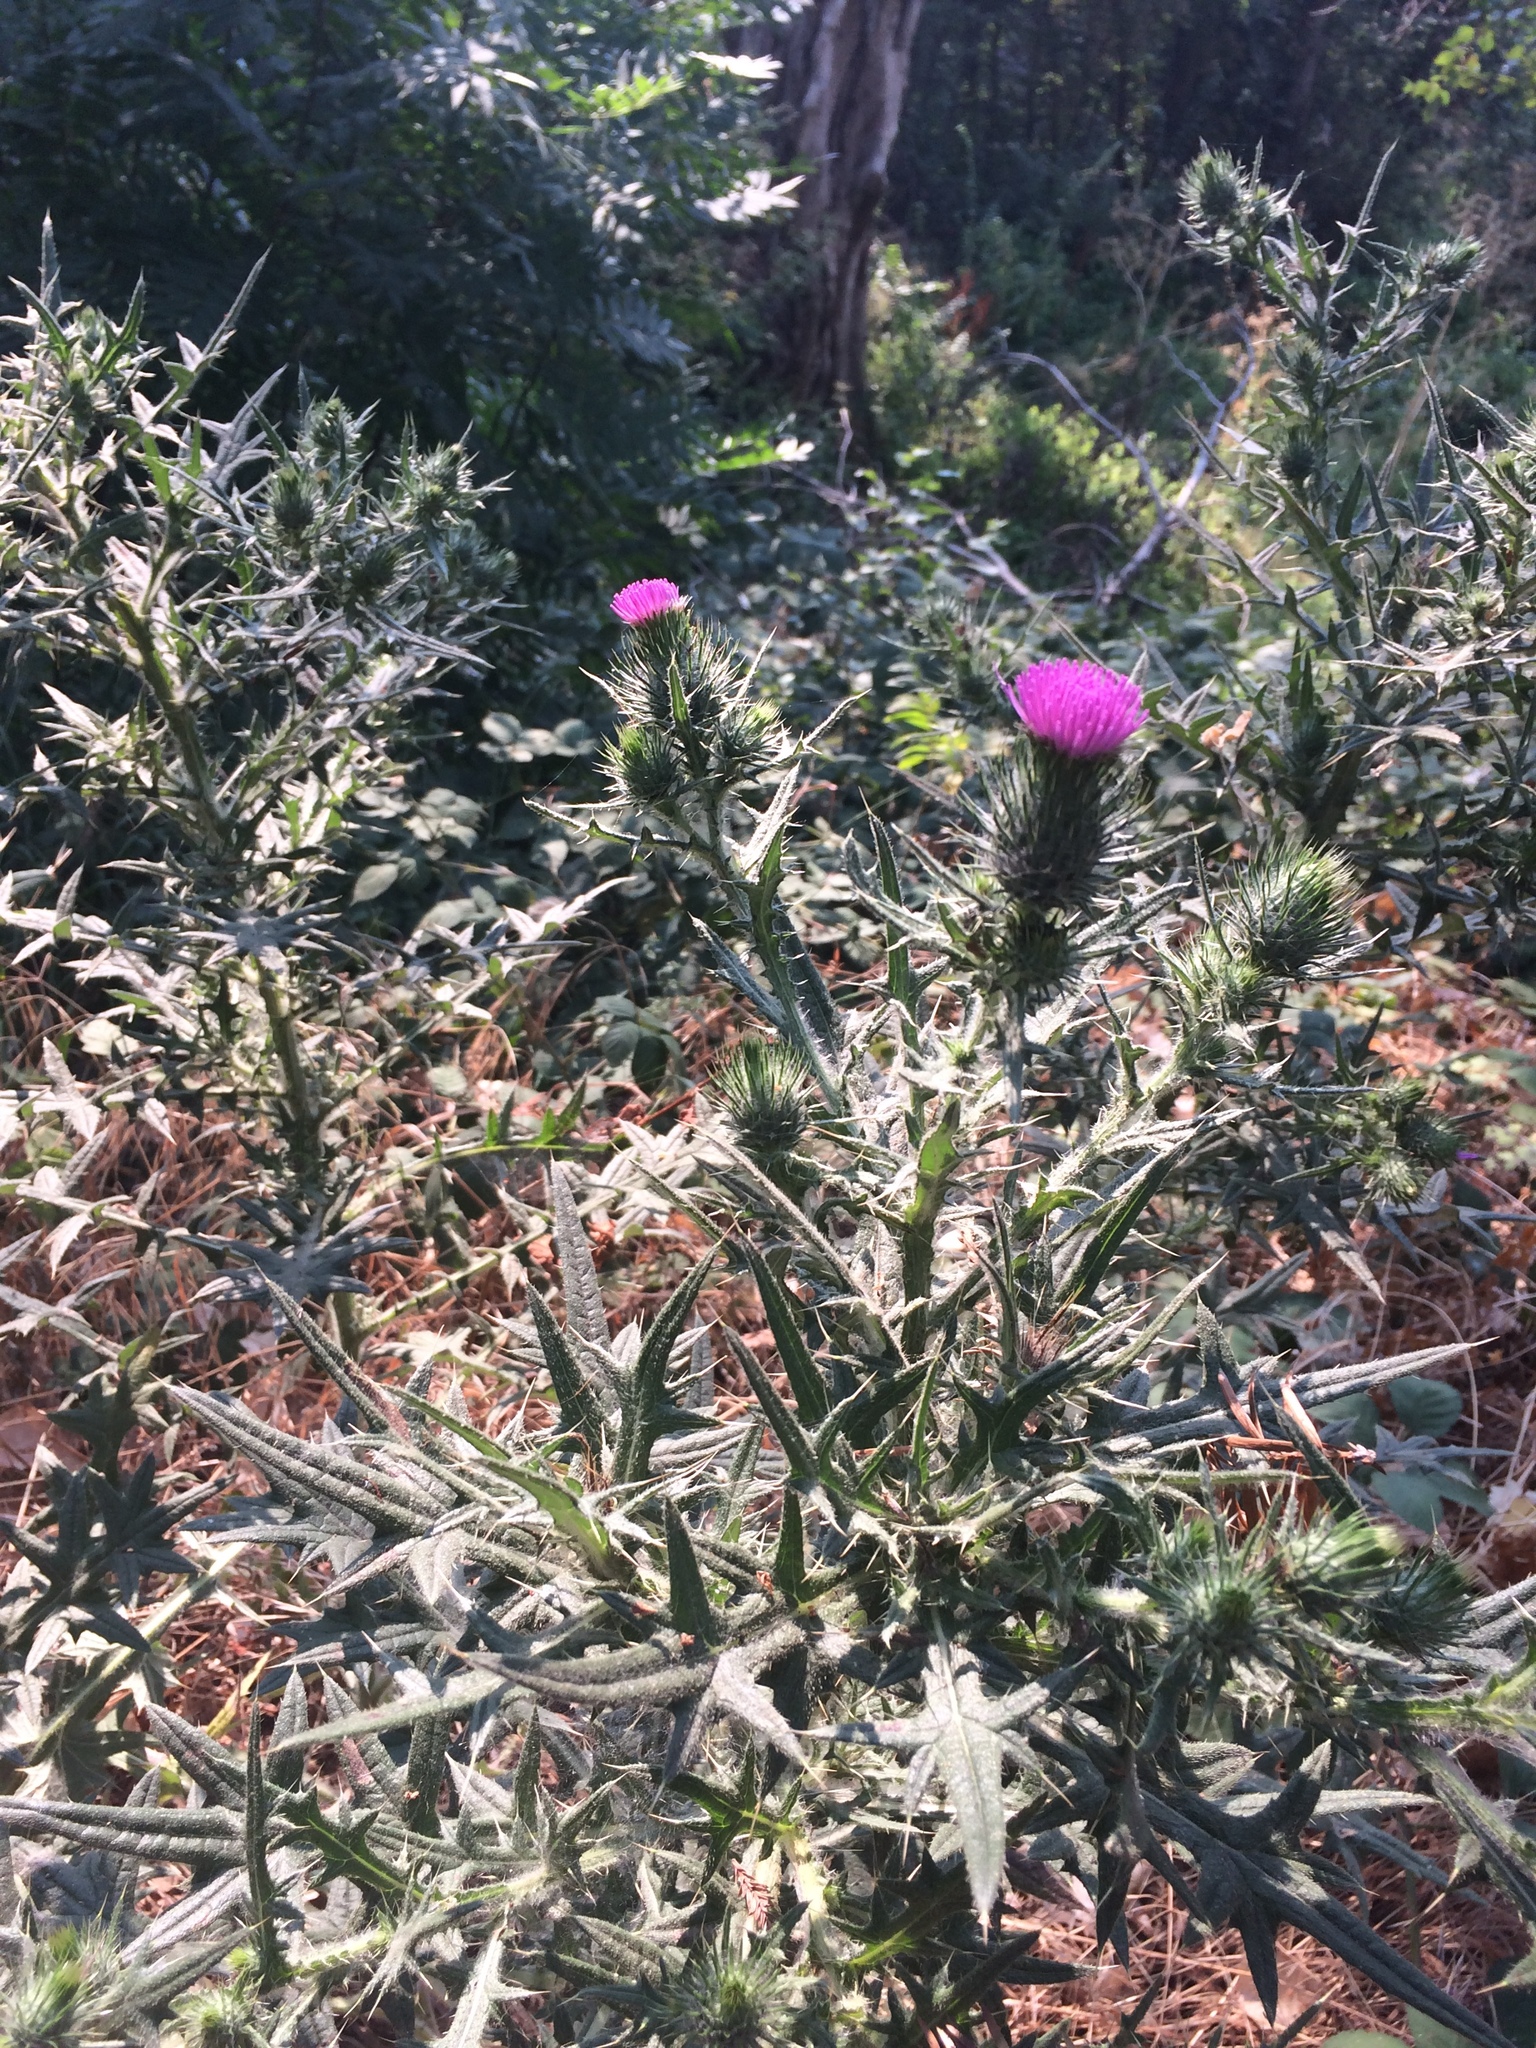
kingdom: Plantae
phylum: Tracheophyta
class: Magnoliopsida
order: Asterales
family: Asteraceae
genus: Cirsium
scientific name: Cirsium vulgare
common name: Bull thistle
